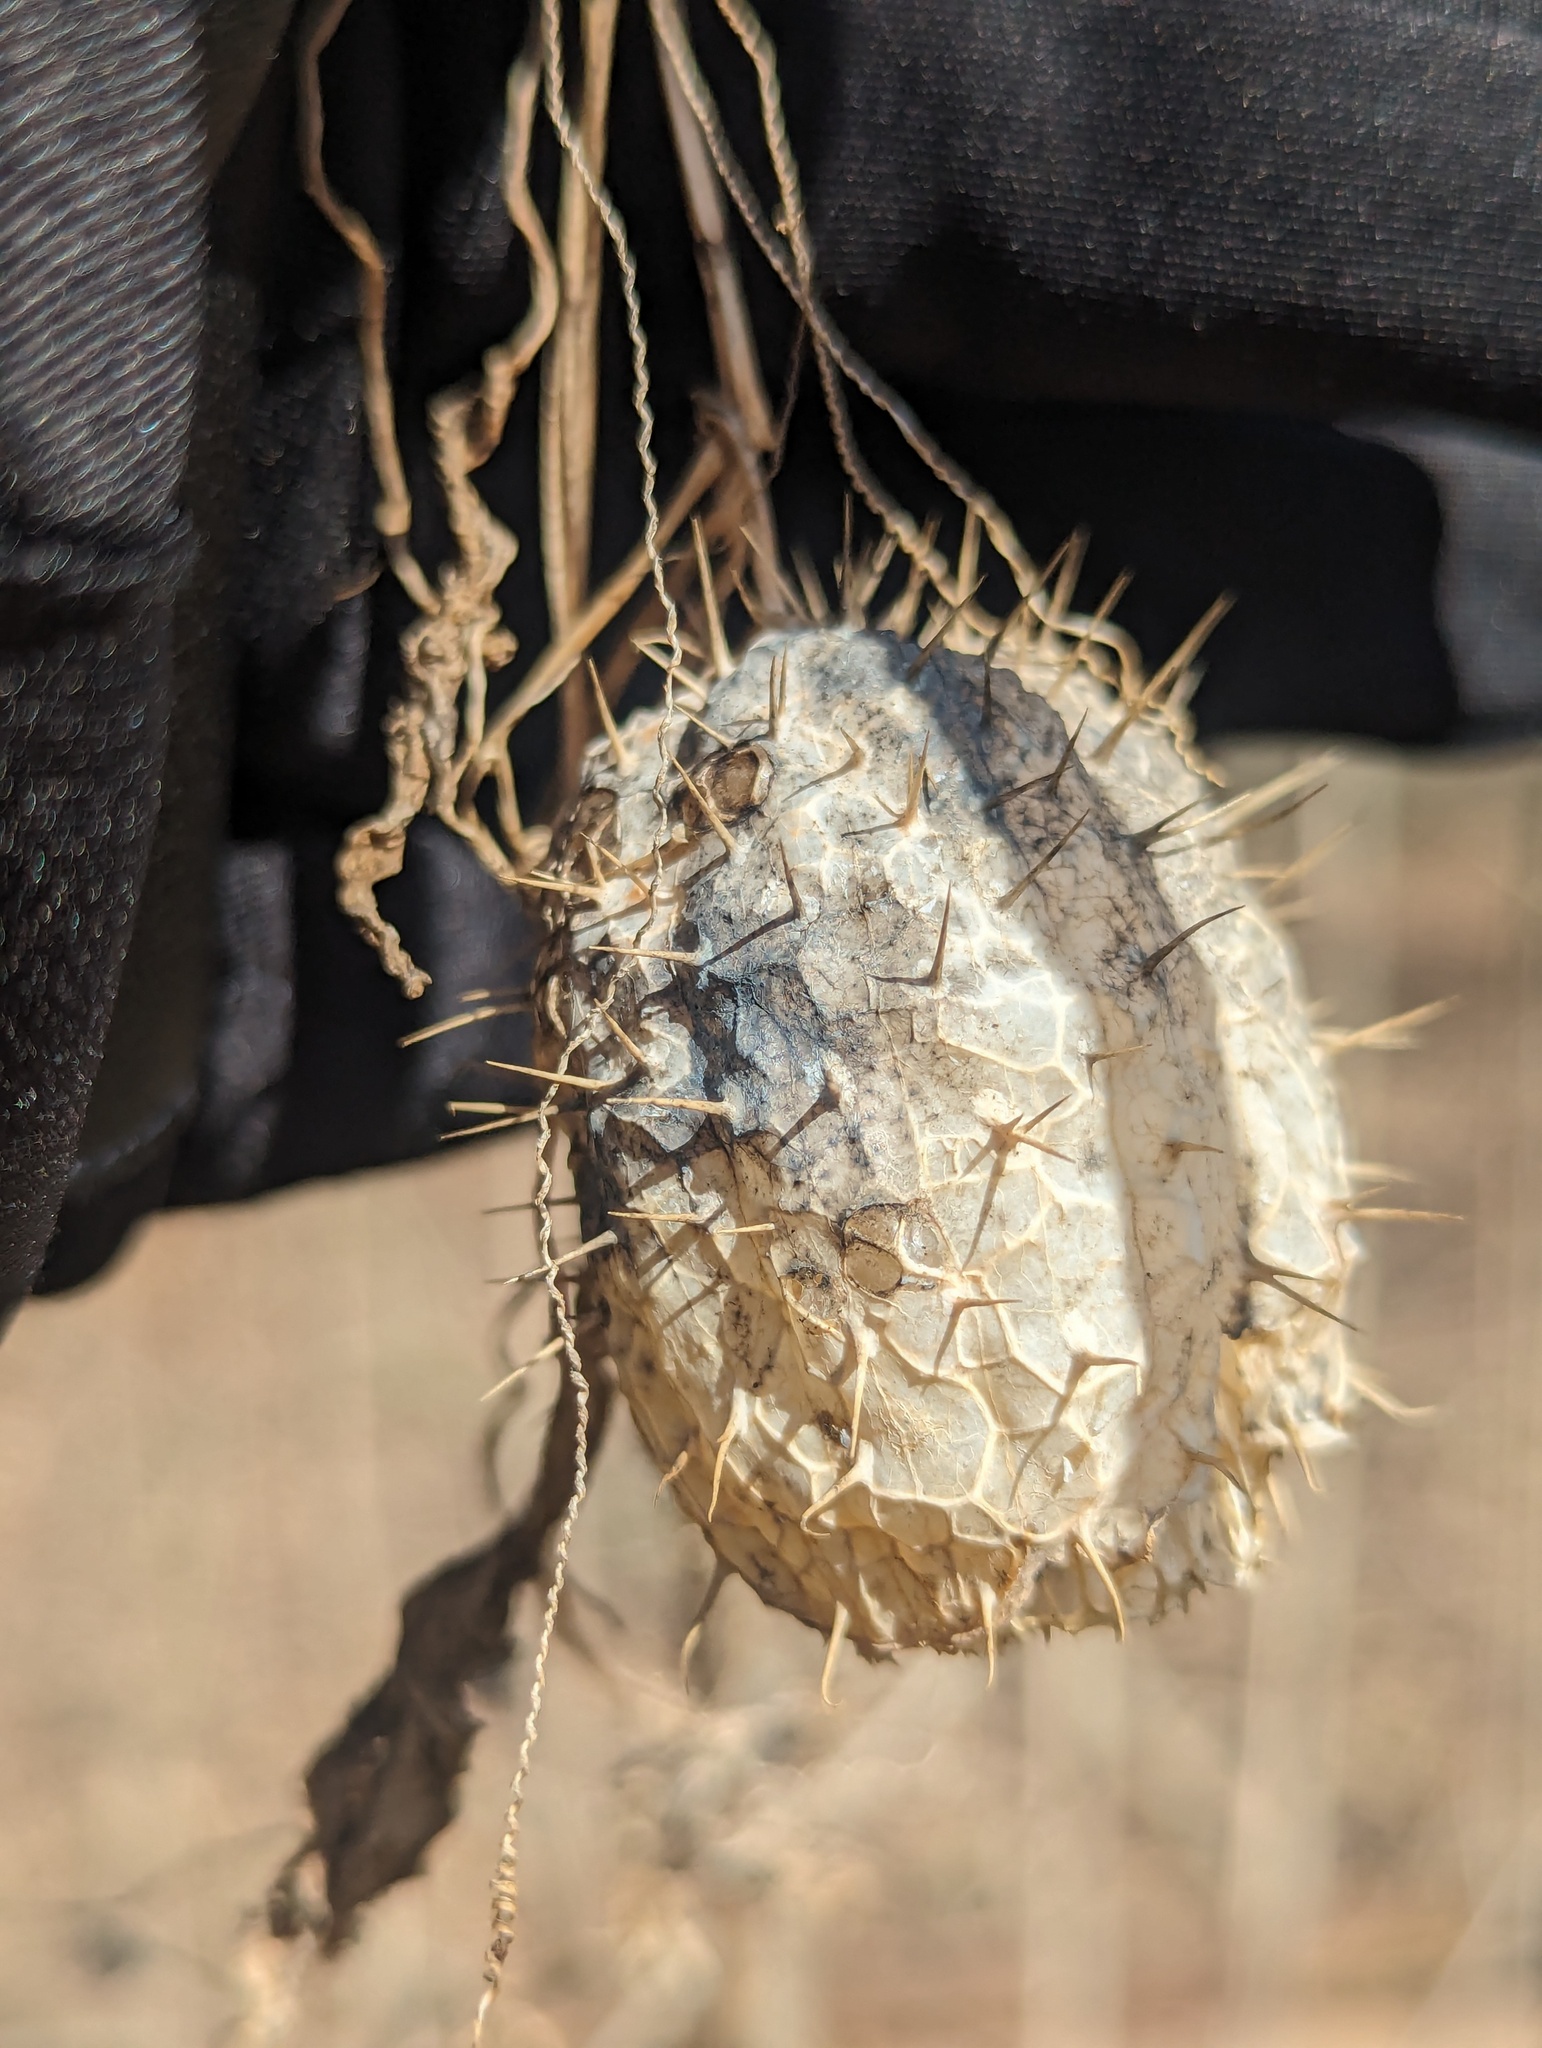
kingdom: Plantae
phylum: Tracheophyta
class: Magnoliopsida
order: Cucurbitales
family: Cucurbitaceae
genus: Echinocystis
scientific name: Echinocystis lobata
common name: Wild cucumber
